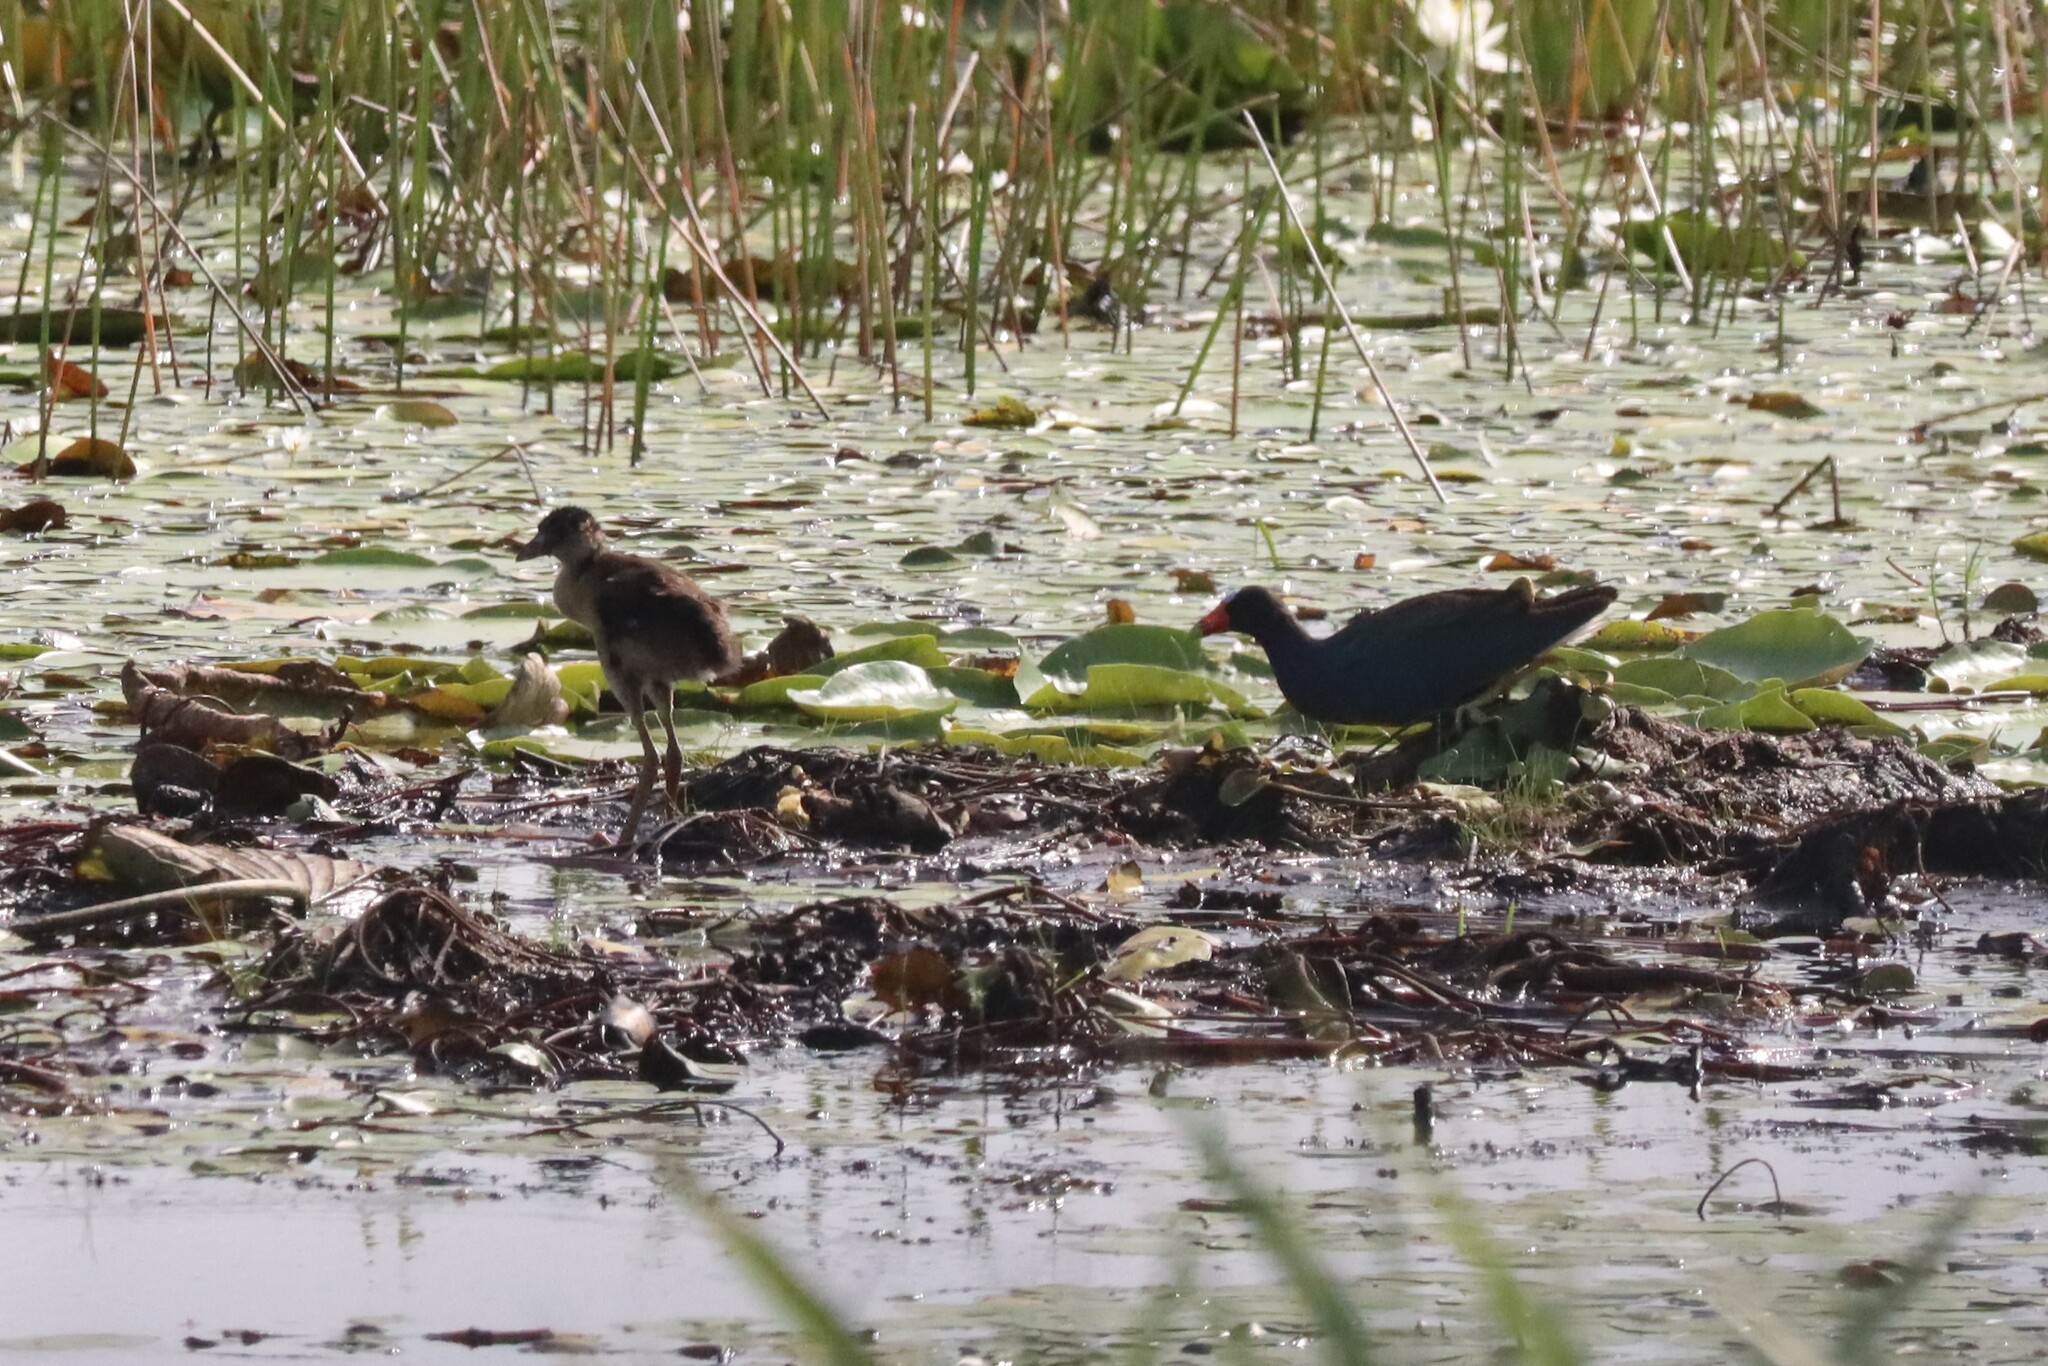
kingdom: Animalia
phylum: Chordata
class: Aves
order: Gruiformes
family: Rallidae
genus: Porphyrio
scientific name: Porphyrio martinica
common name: Purple gallinule
